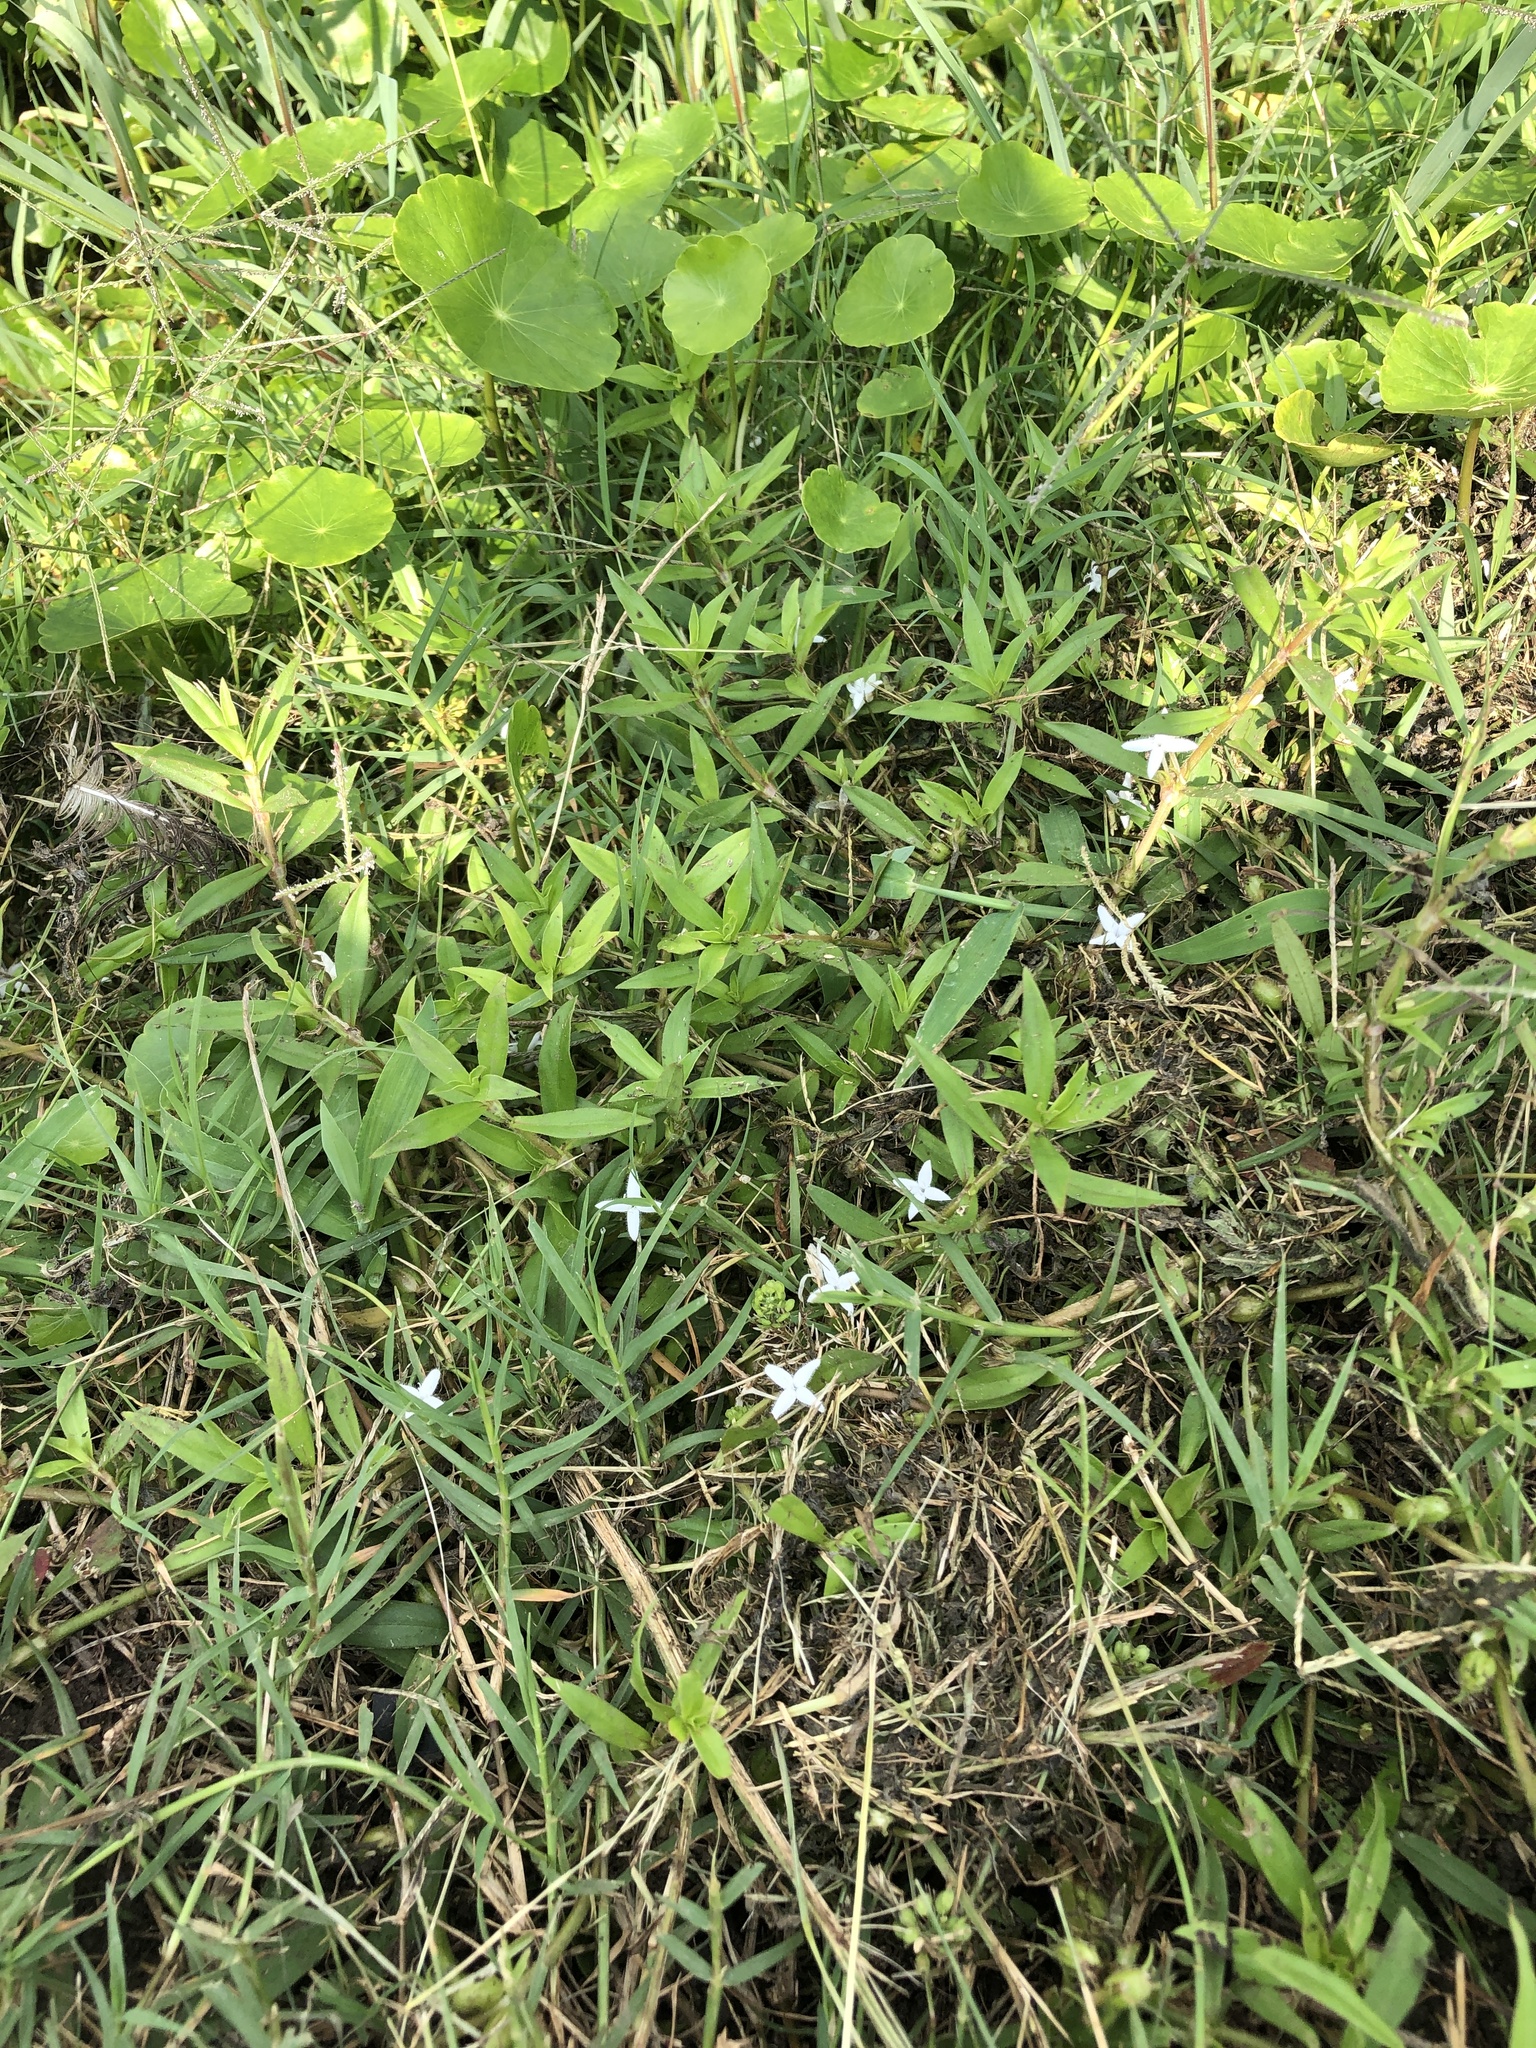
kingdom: Plantae
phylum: Tracheophyta
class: Magnoliopsida
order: Gentianales
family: Rubiaceae
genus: Diodia
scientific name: Diodia virginiana
